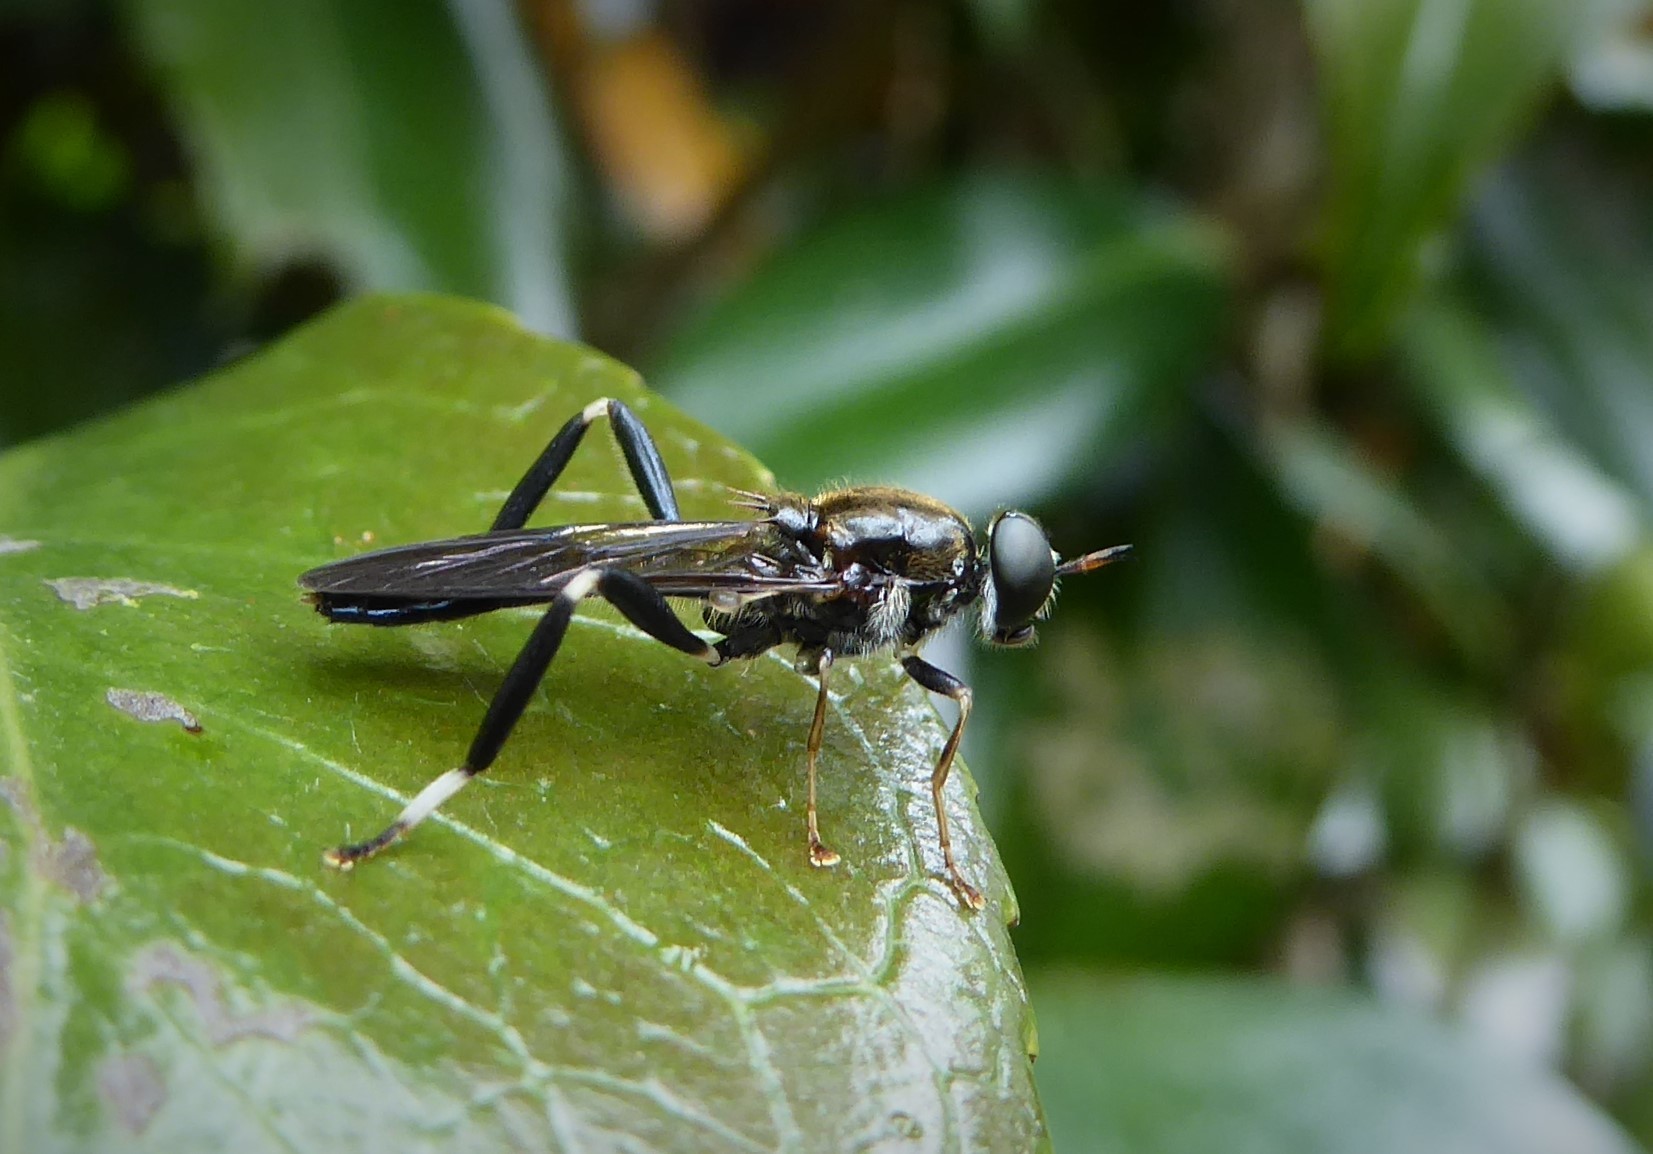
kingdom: Animalia
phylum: Arthropoda
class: Insecta
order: Diptera
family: Stratiomyidae
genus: Exaireta
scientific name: Exaireta spinigera
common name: Blue soldier fly
